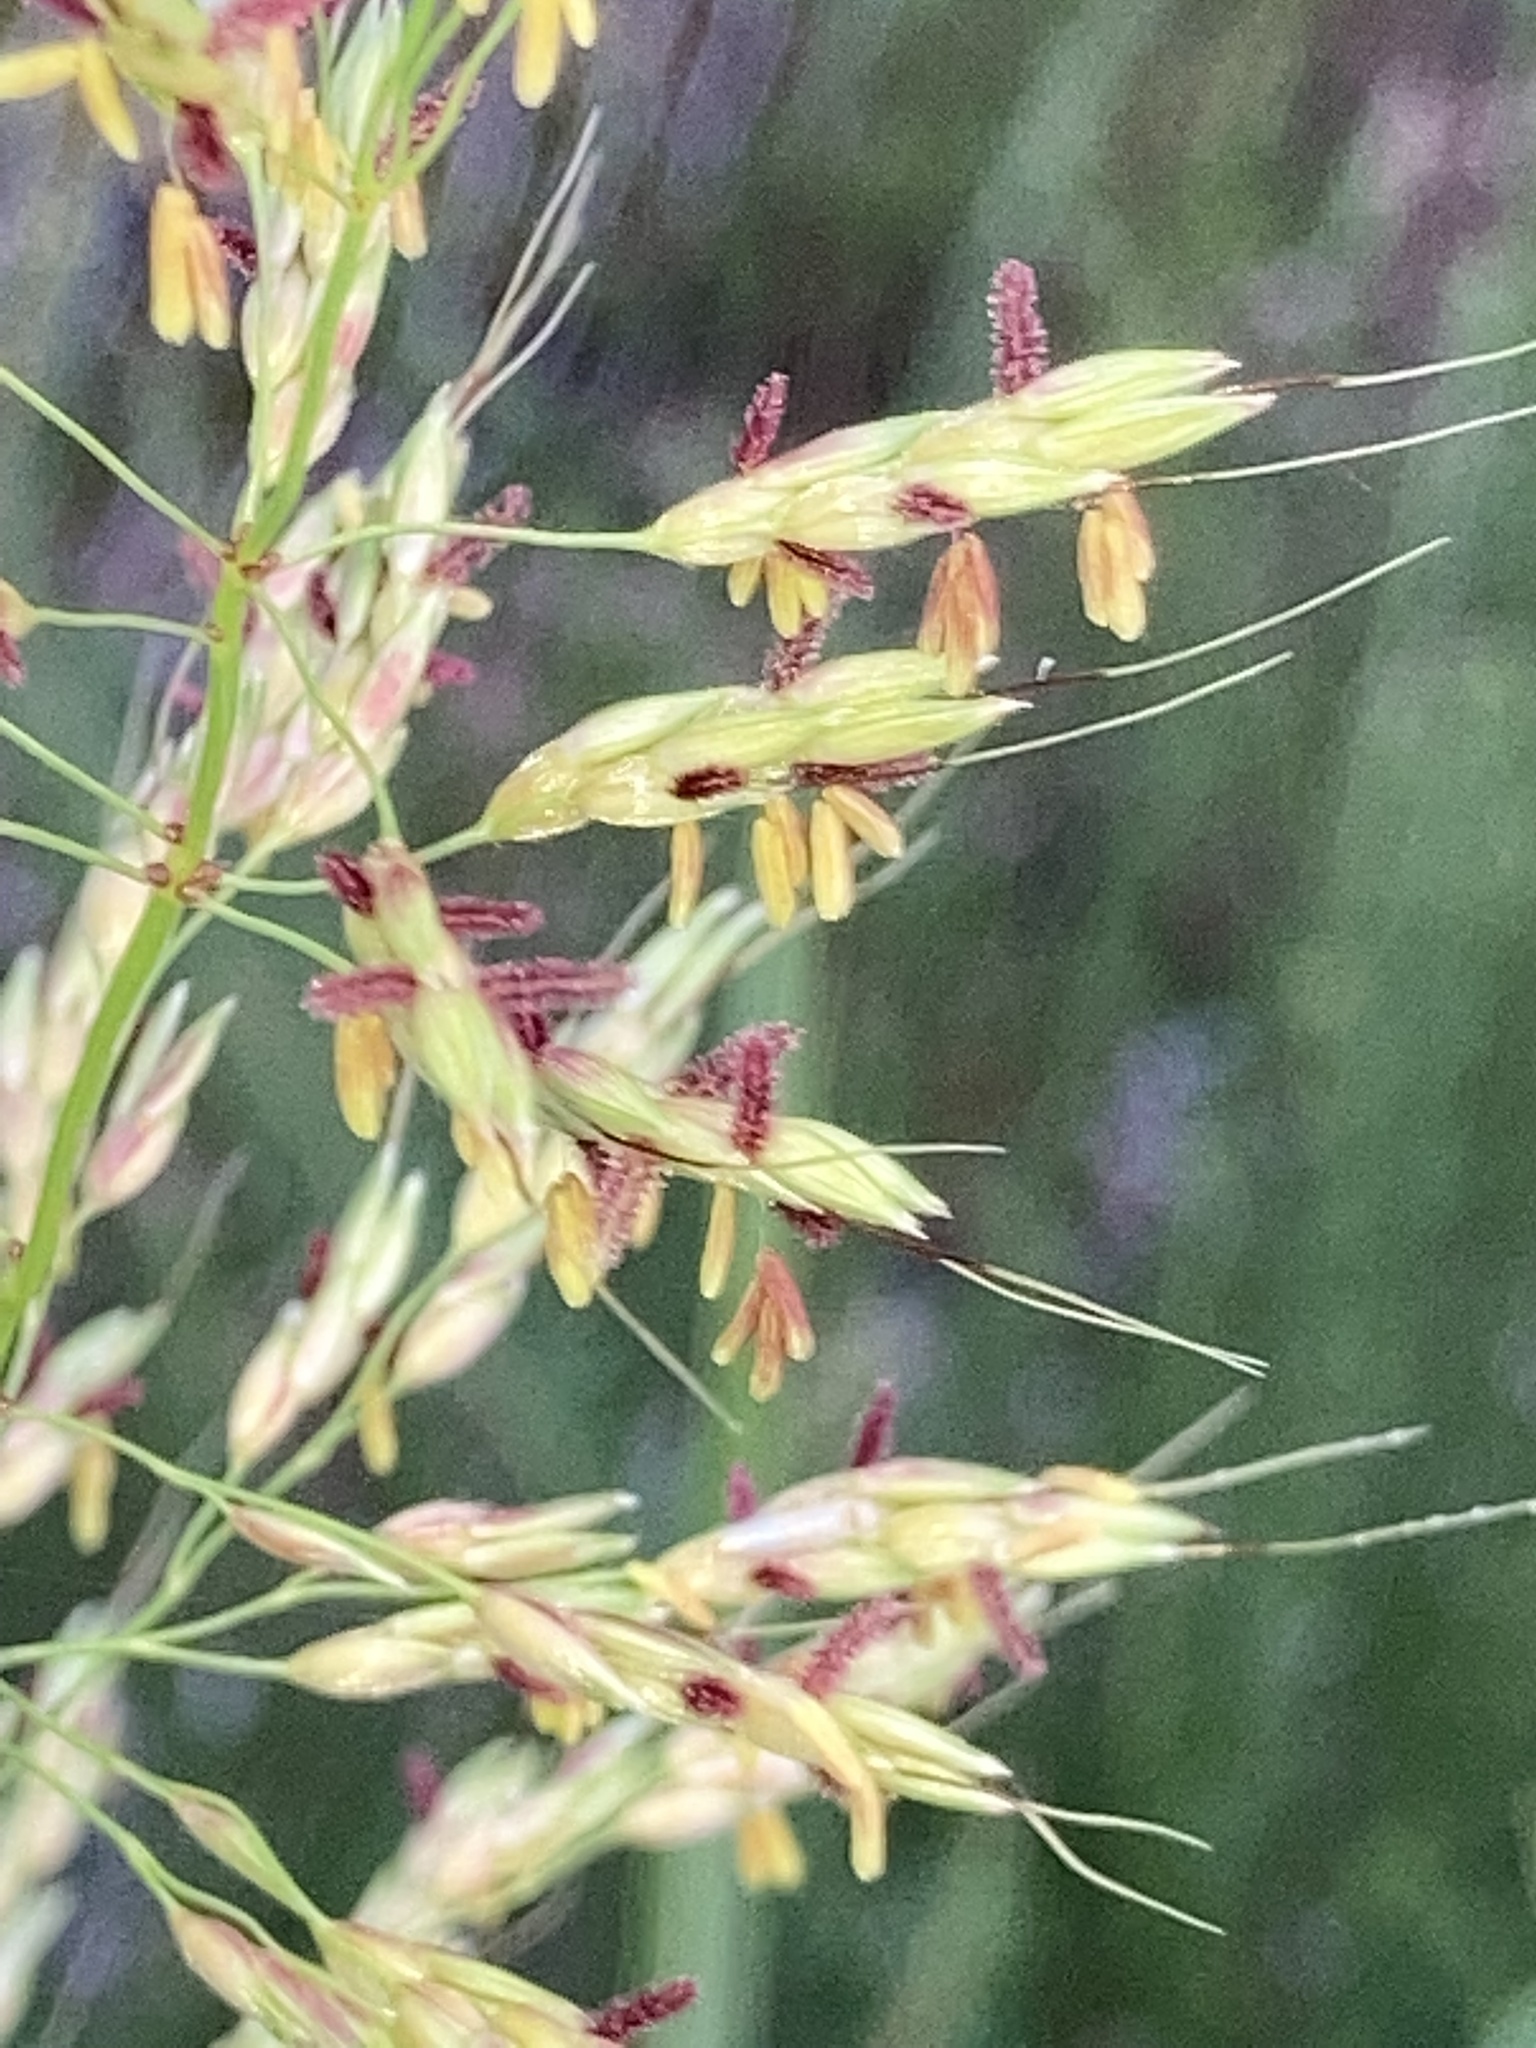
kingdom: Plantae
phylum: Tracheophyta
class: Liliopsida
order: Poales
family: Poaceae
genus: Sorghum
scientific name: Sorghum halepense
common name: Johnson-grass
